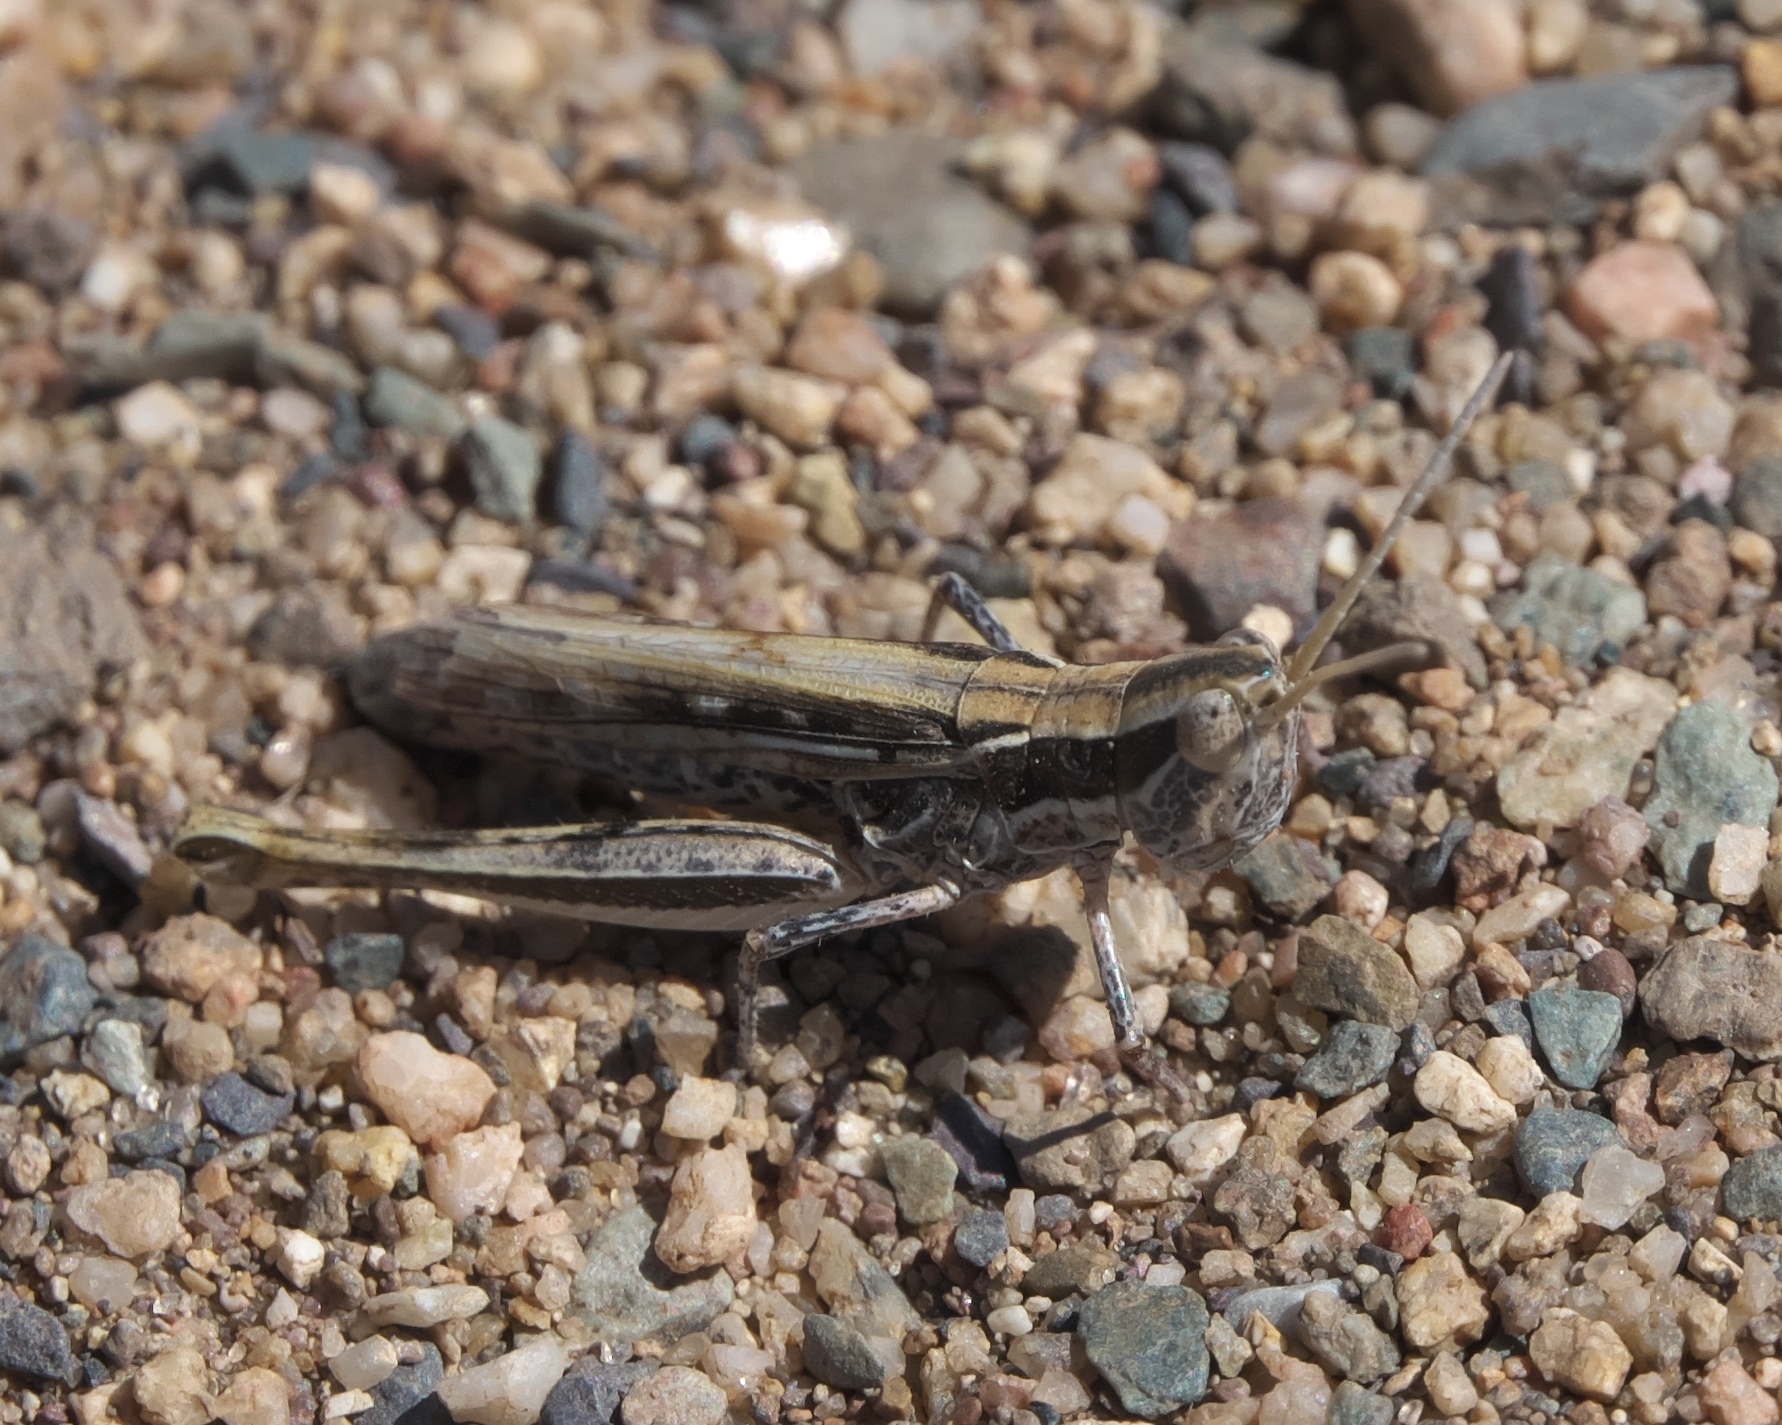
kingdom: Animalia
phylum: Arthropoda
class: Insecta
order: Orthoptera
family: Acrididae
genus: Cordillacris
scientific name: Cordillacris occipitalis
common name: Spotted-winged grasshopper
